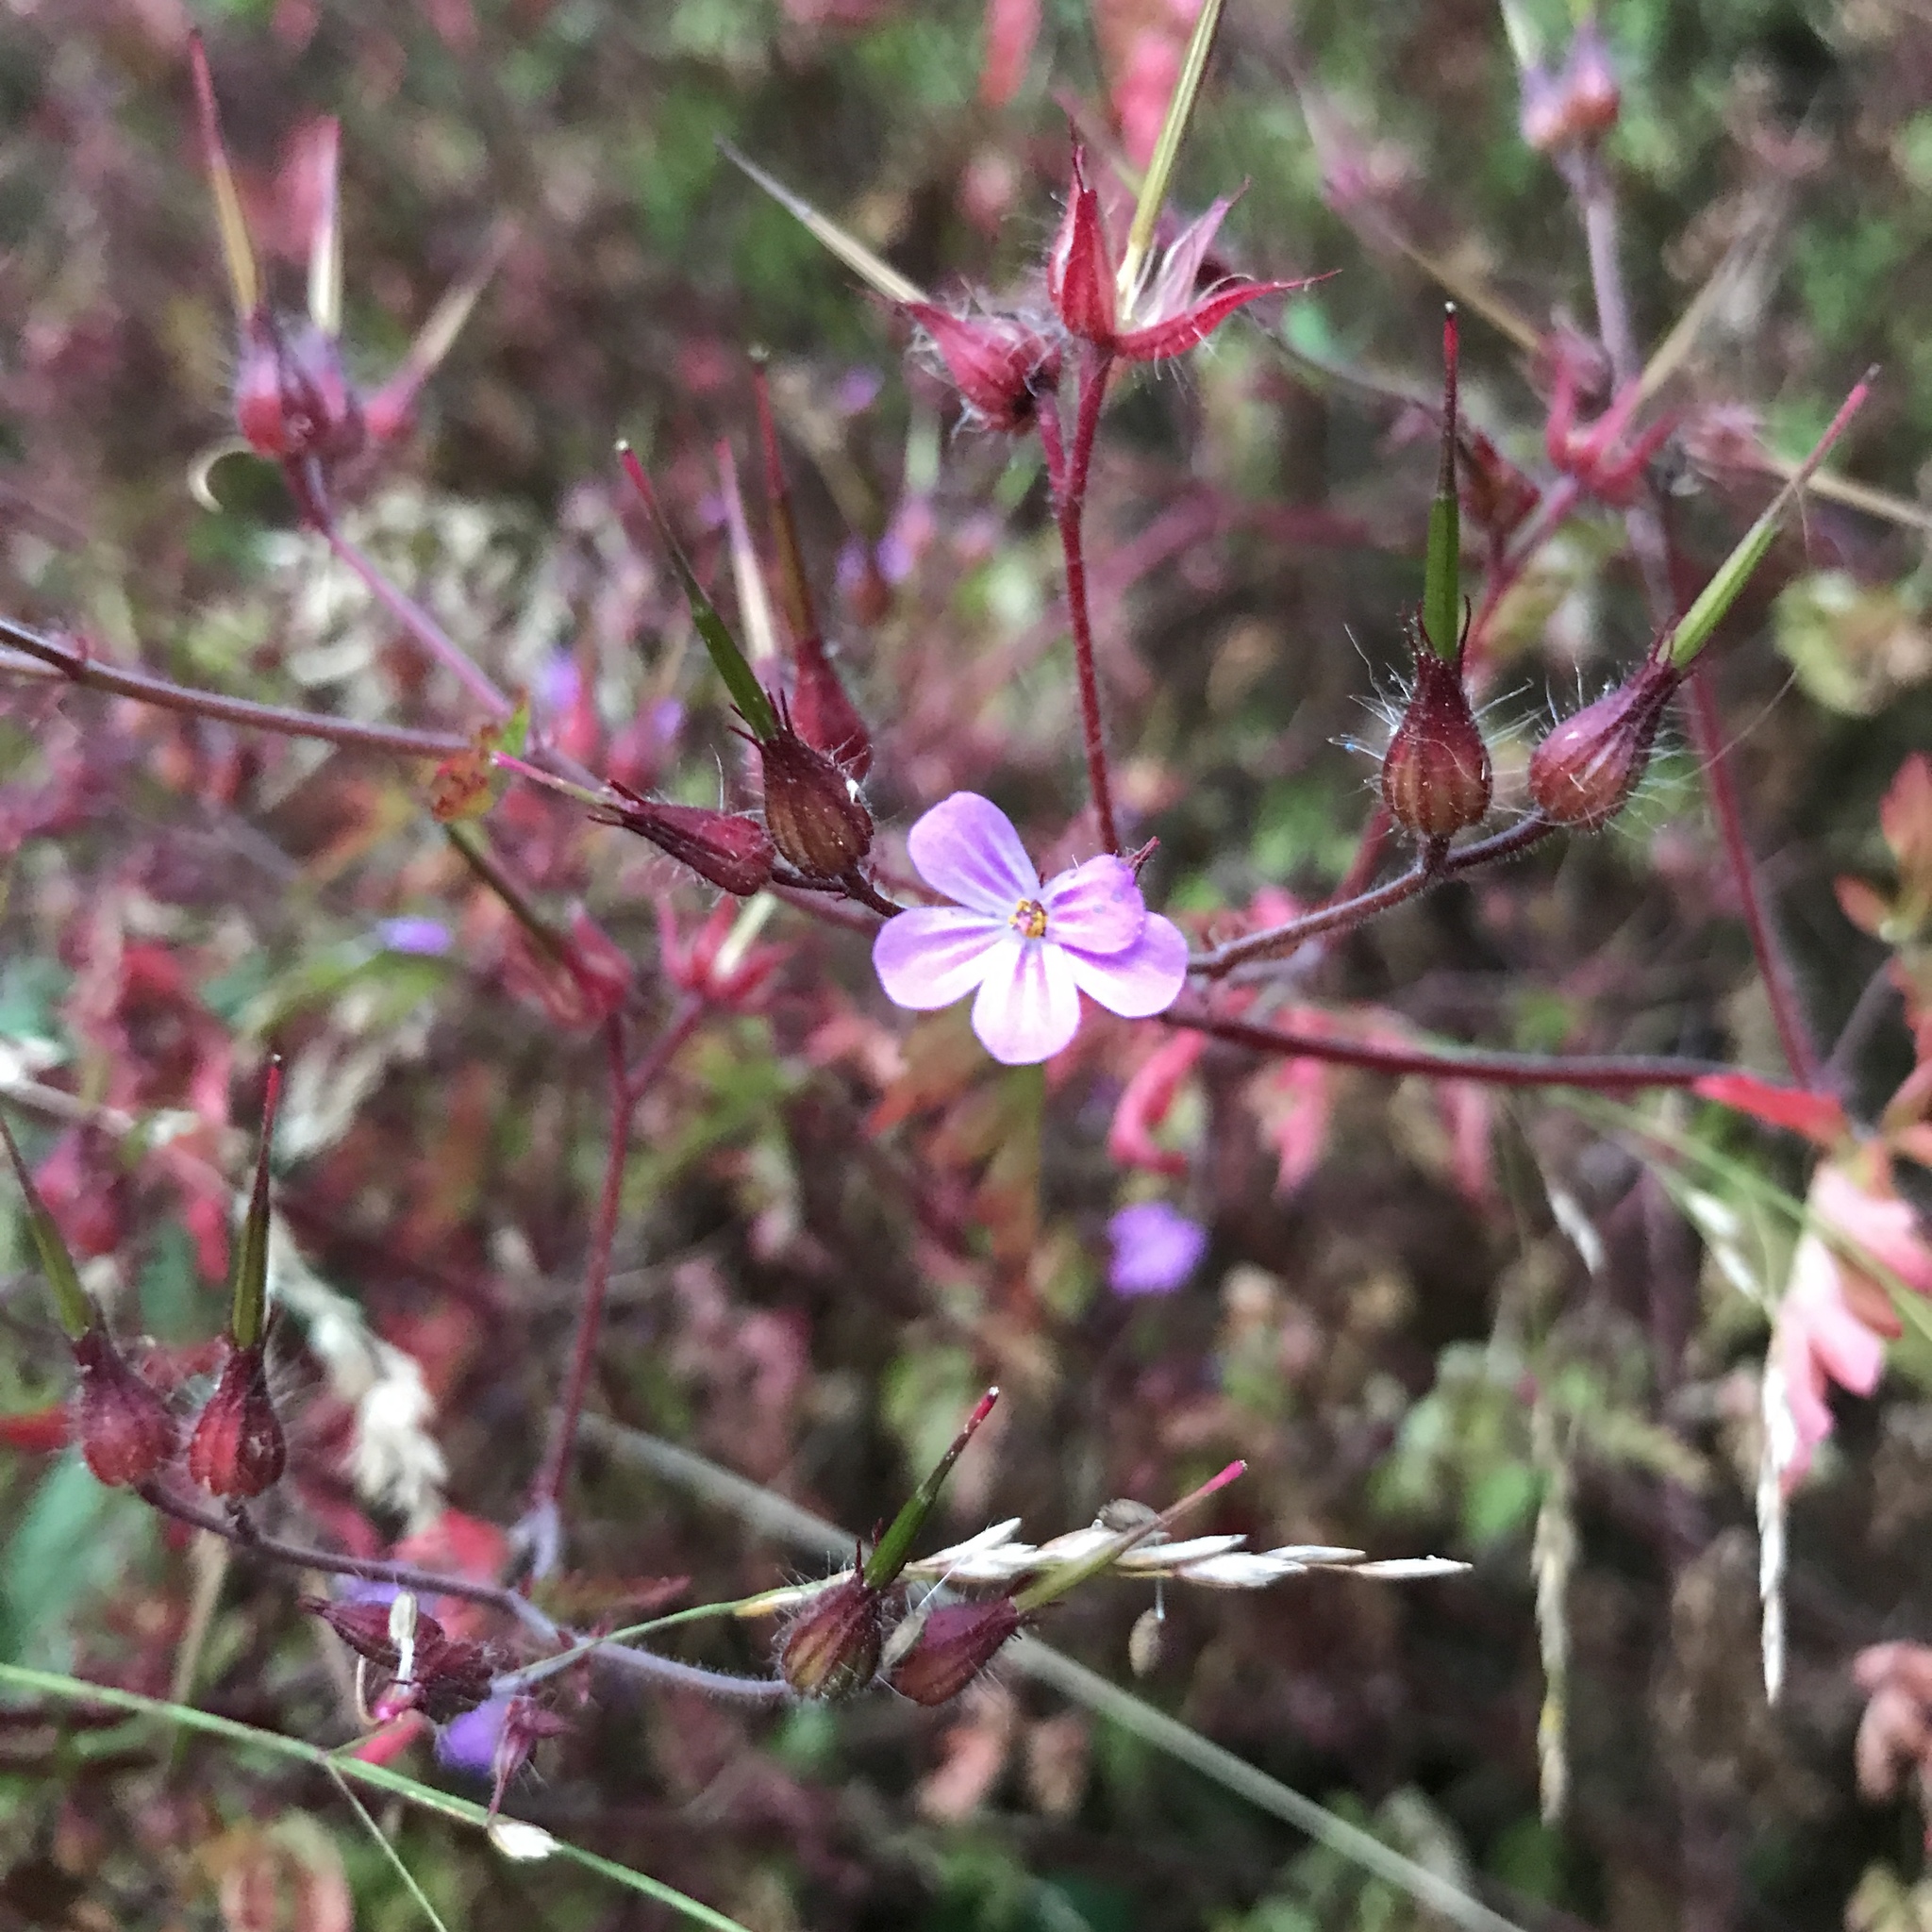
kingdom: Plantae
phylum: Tracheophyta
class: Magnoliopsida
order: Geraniales
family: Geraniaceae
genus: Geranium
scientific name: Geranium robertianum
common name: Herb-robert
